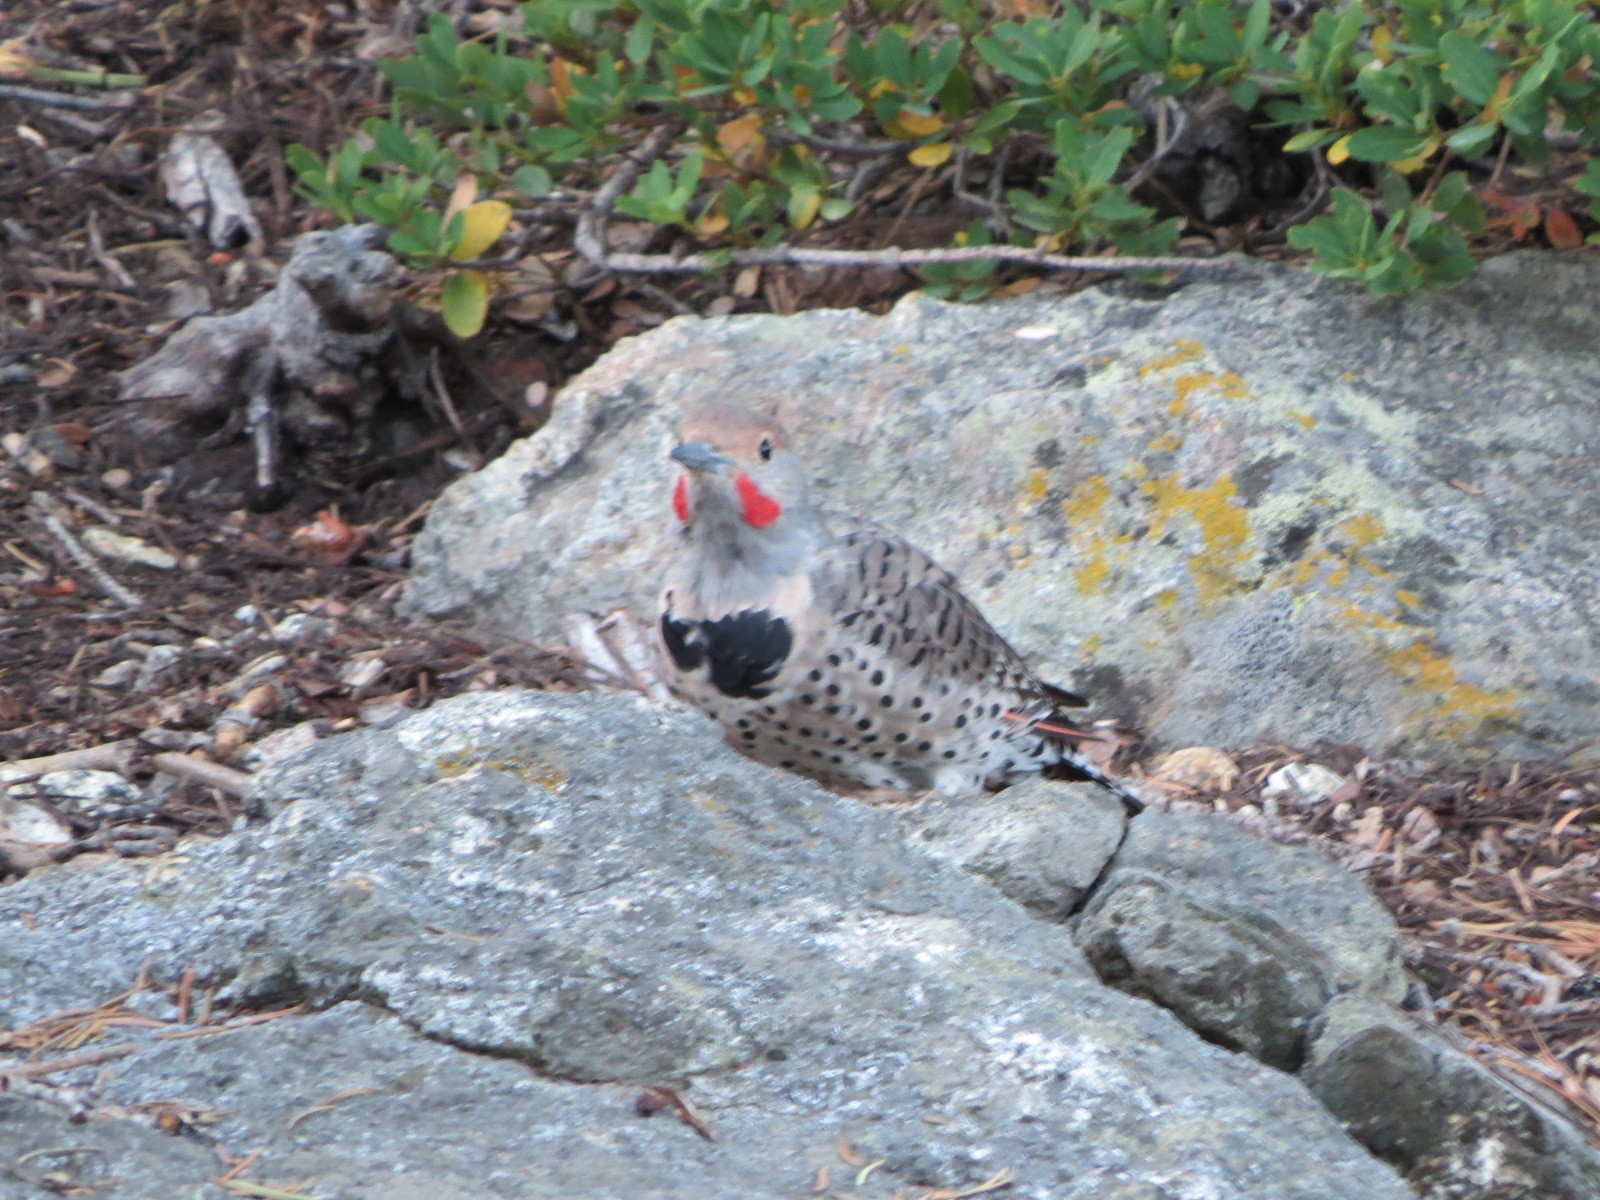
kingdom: Animalia
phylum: Chordata
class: Aves
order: Piciformes
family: Picidae
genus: Colaptes
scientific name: Colaptes auratus
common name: Northern flicker
